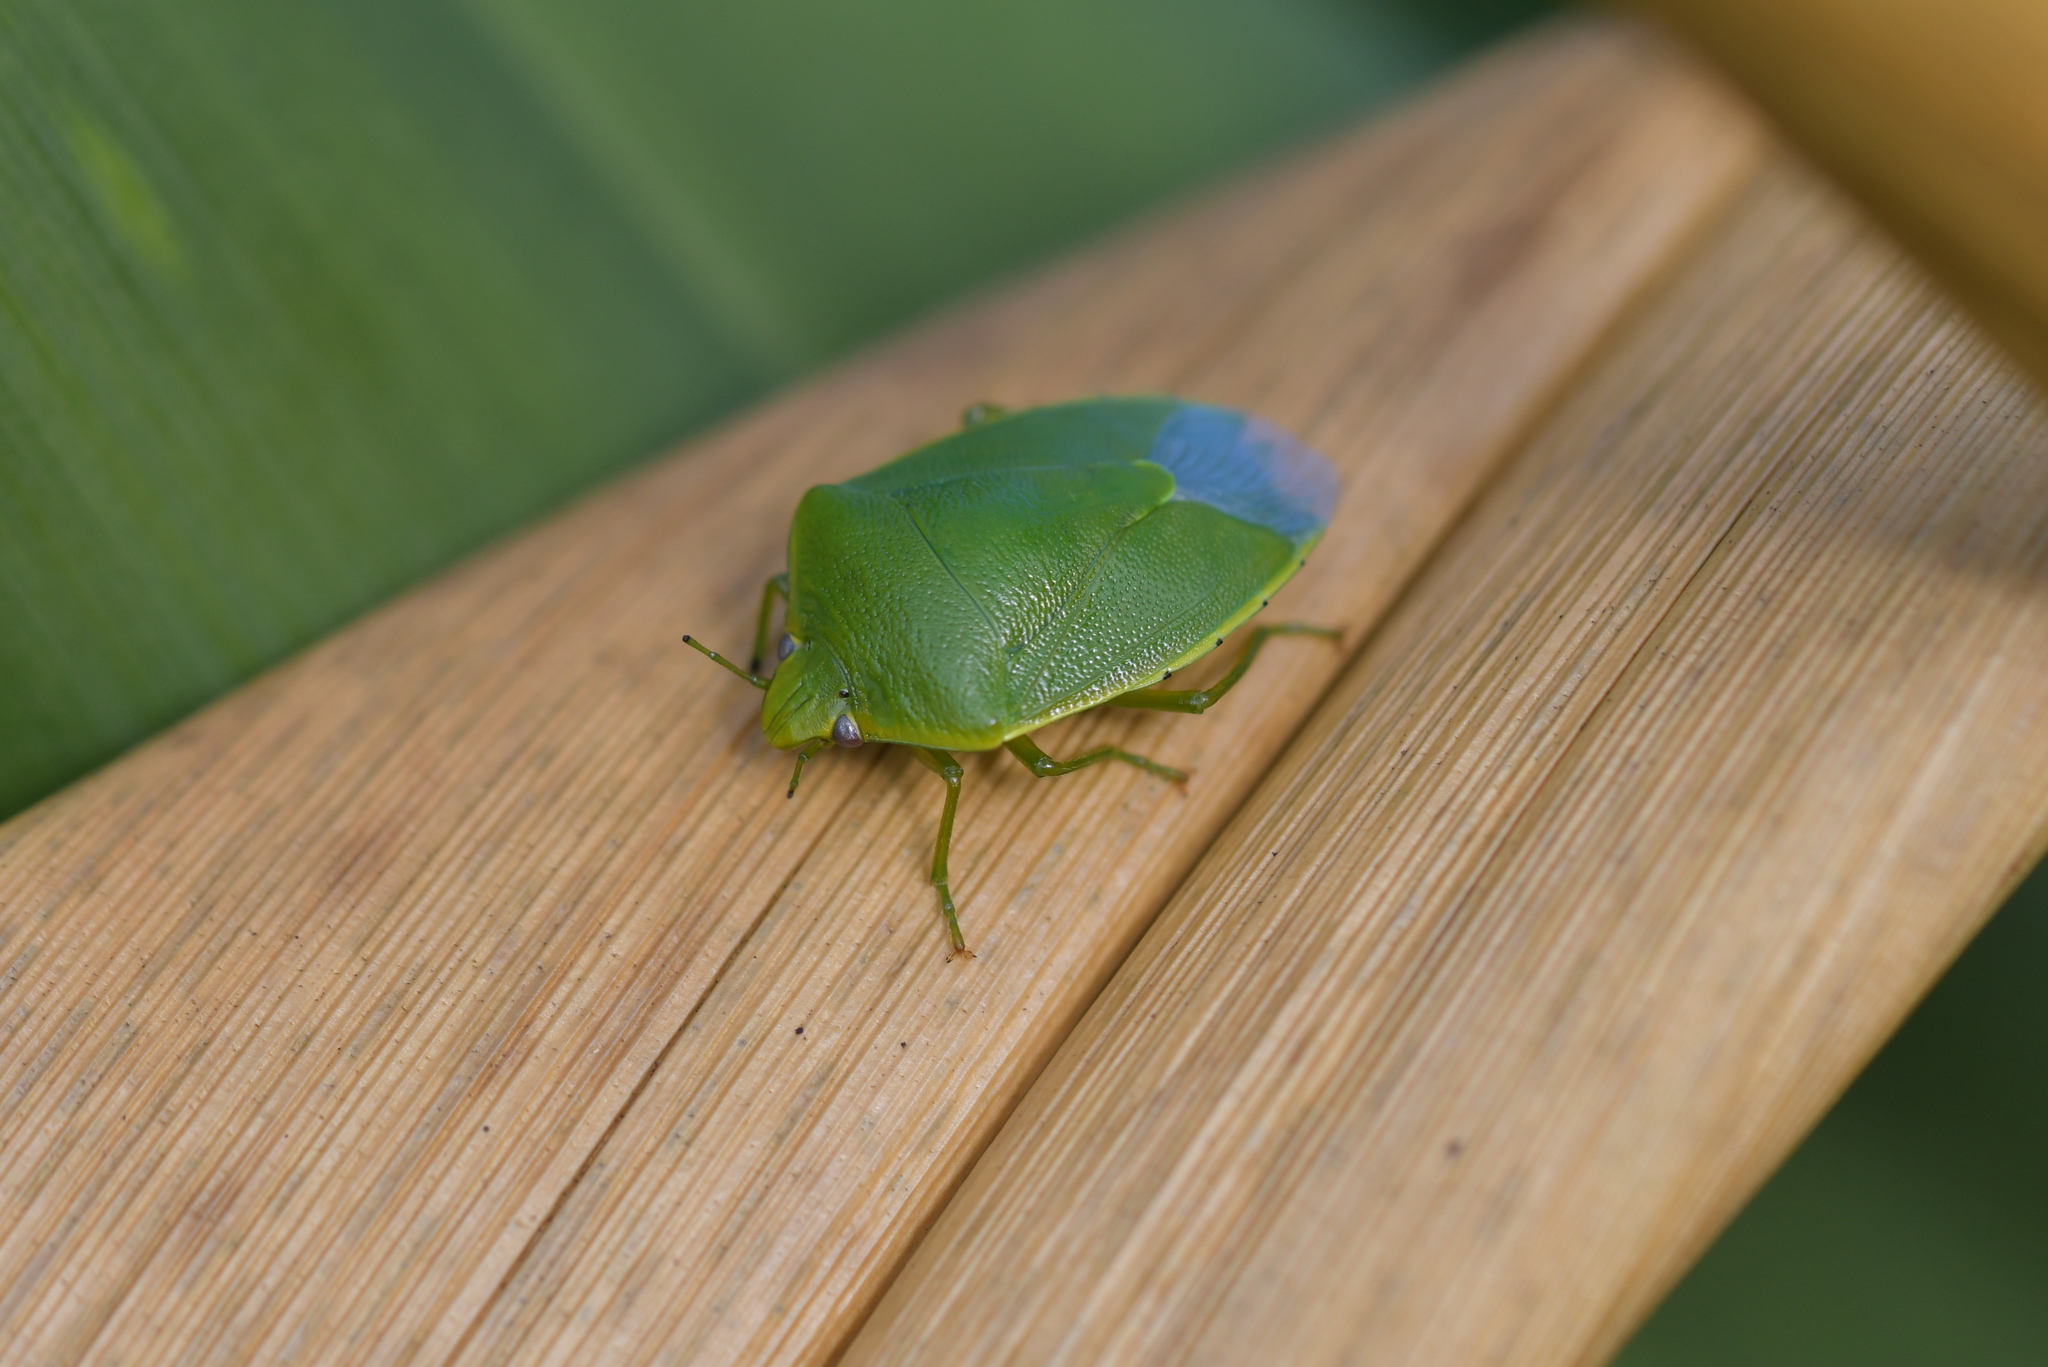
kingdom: Animalia
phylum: Arthropoda
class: Insecta
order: Hemiptera
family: Pentatomidae
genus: Glaucias
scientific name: Glaucias amyota
